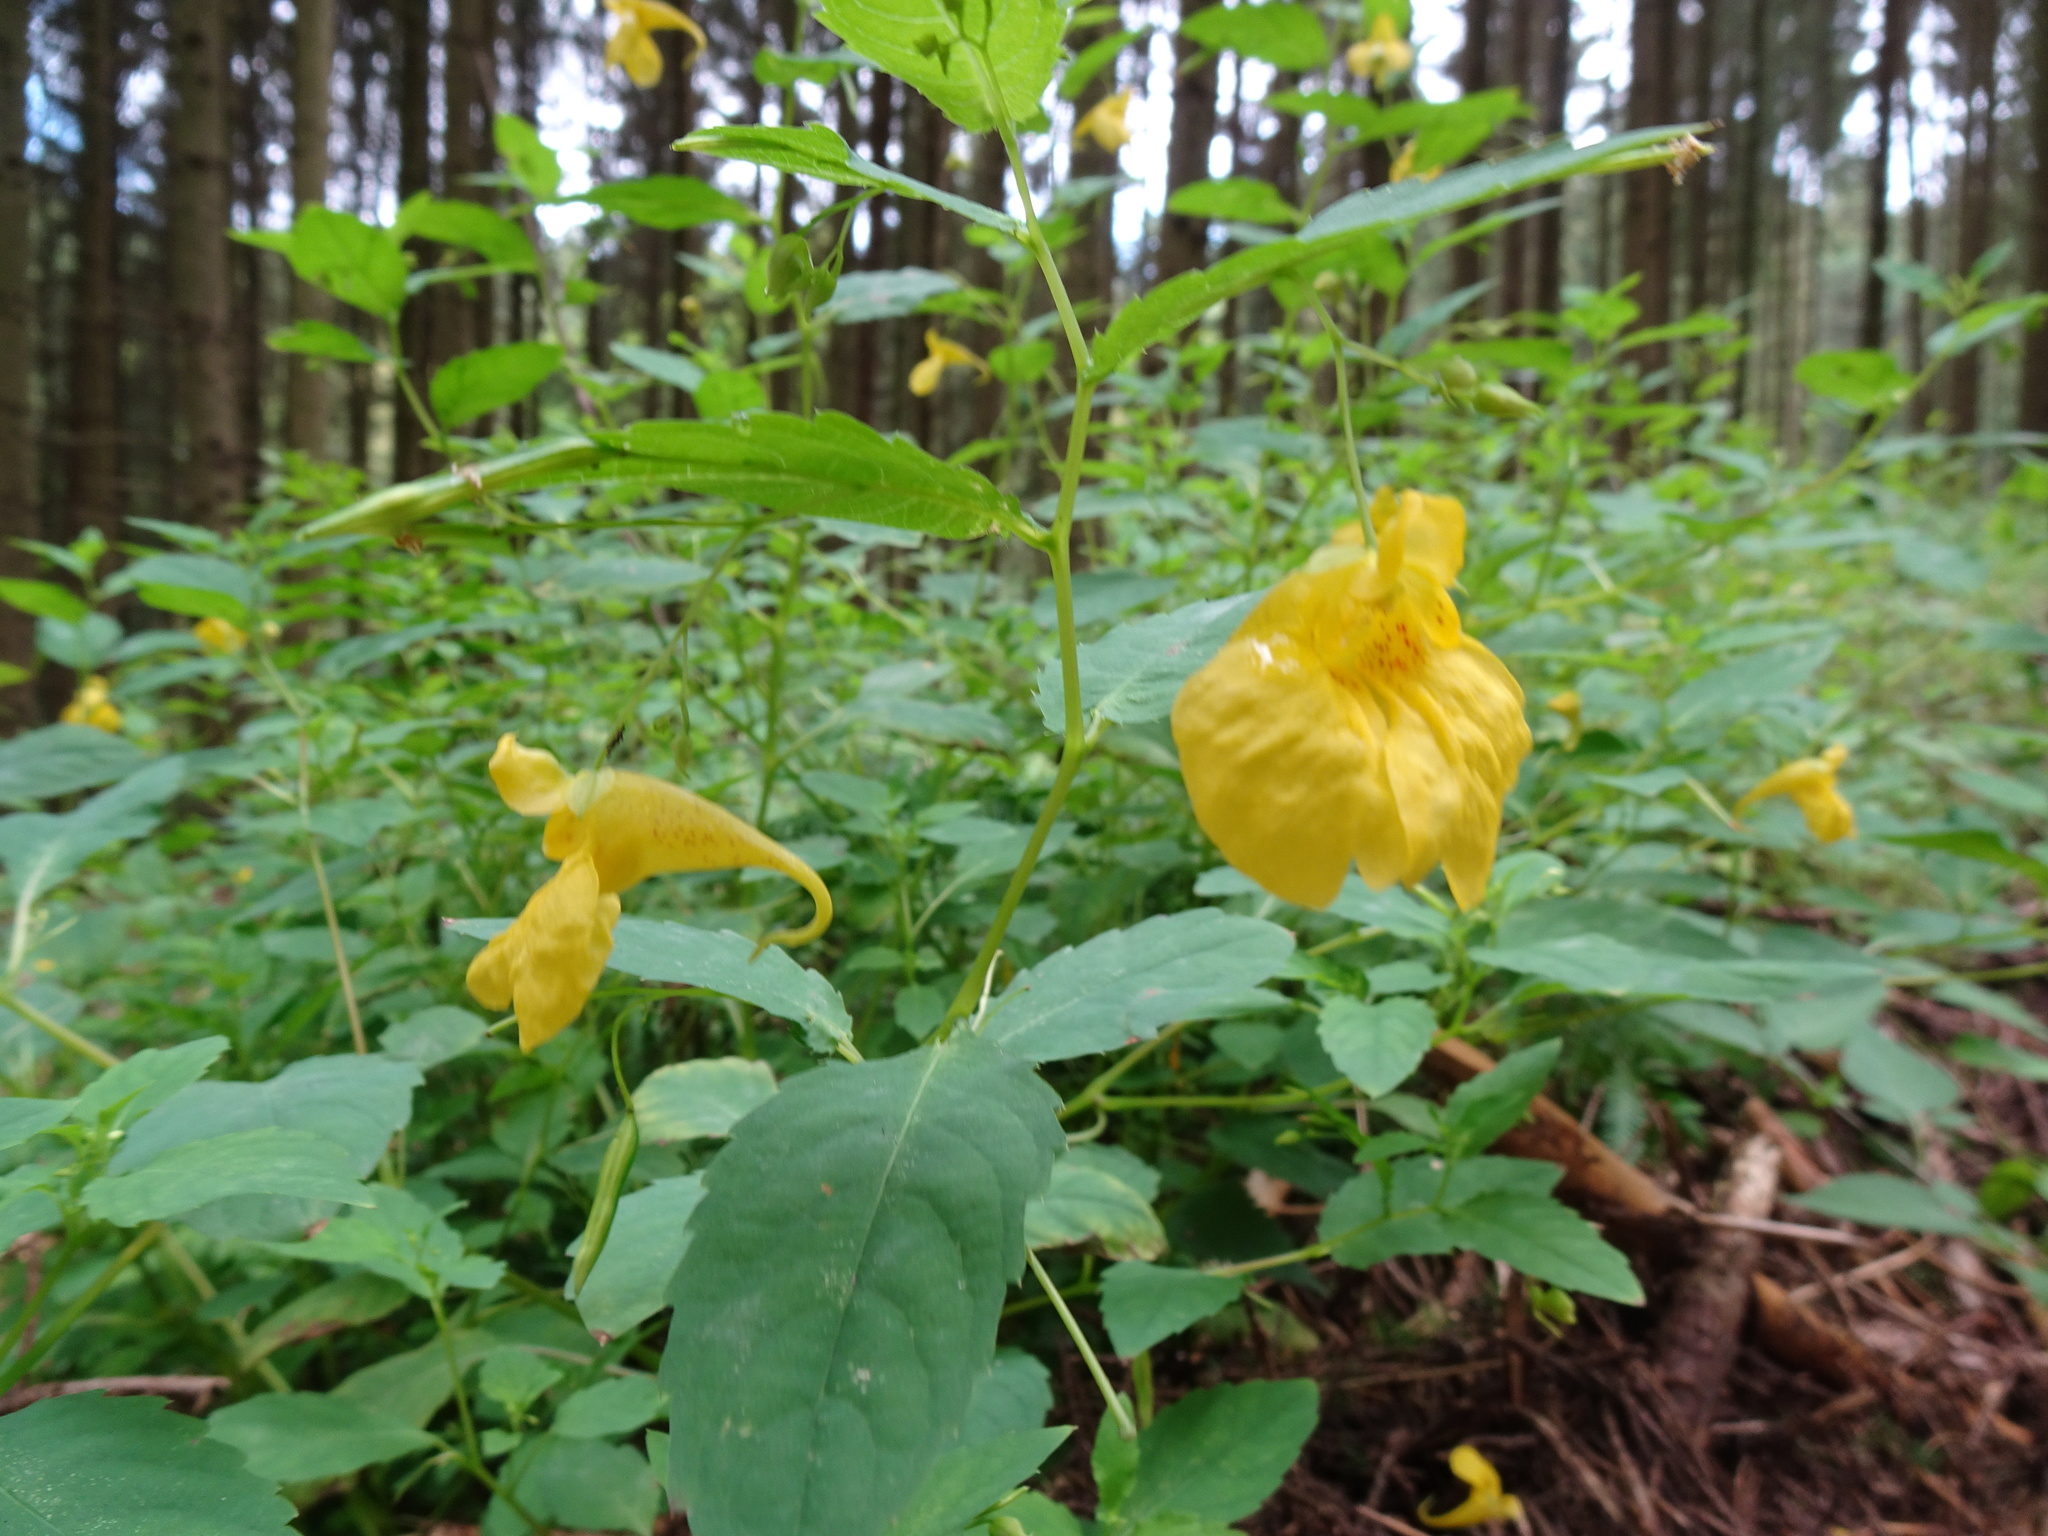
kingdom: Plantae
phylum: Tracheophyta
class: Magnoliopsida
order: Ericales
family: Balsaminaceae
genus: Impatiens
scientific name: Impatiens noli-tangere
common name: Touch-me-not balsam
